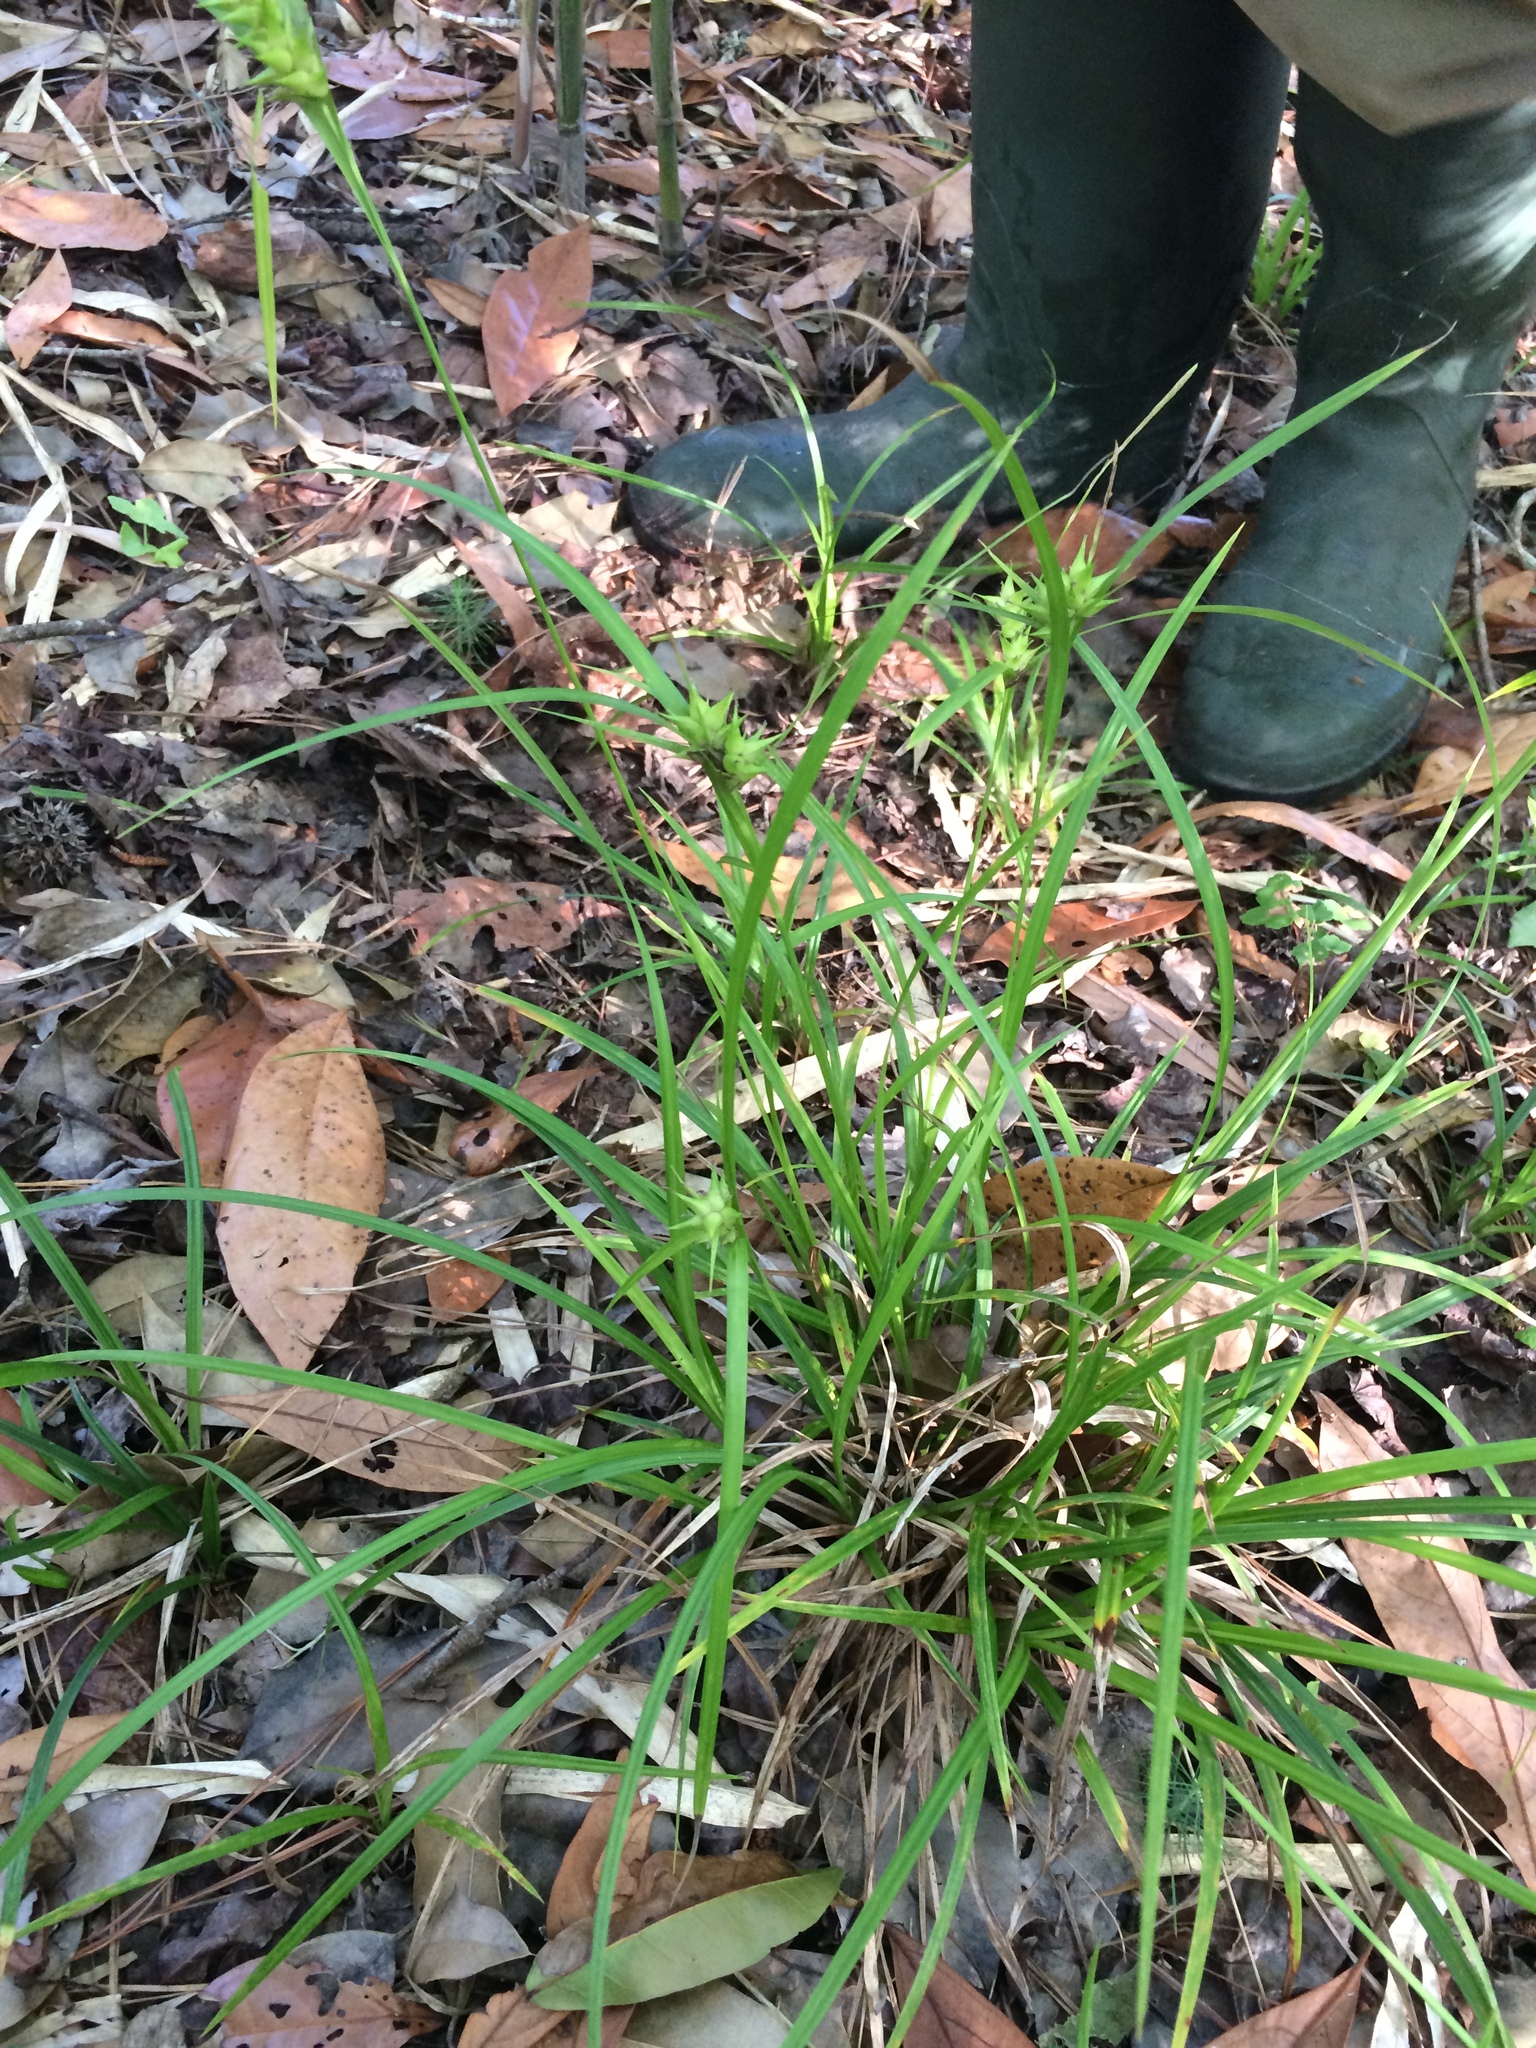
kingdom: Plantae
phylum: Tracheophyta
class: Liliopsida
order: Poales
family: Cyperaceae
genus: Carex
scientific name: Carex intumescens
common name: Greater bladder sedge
